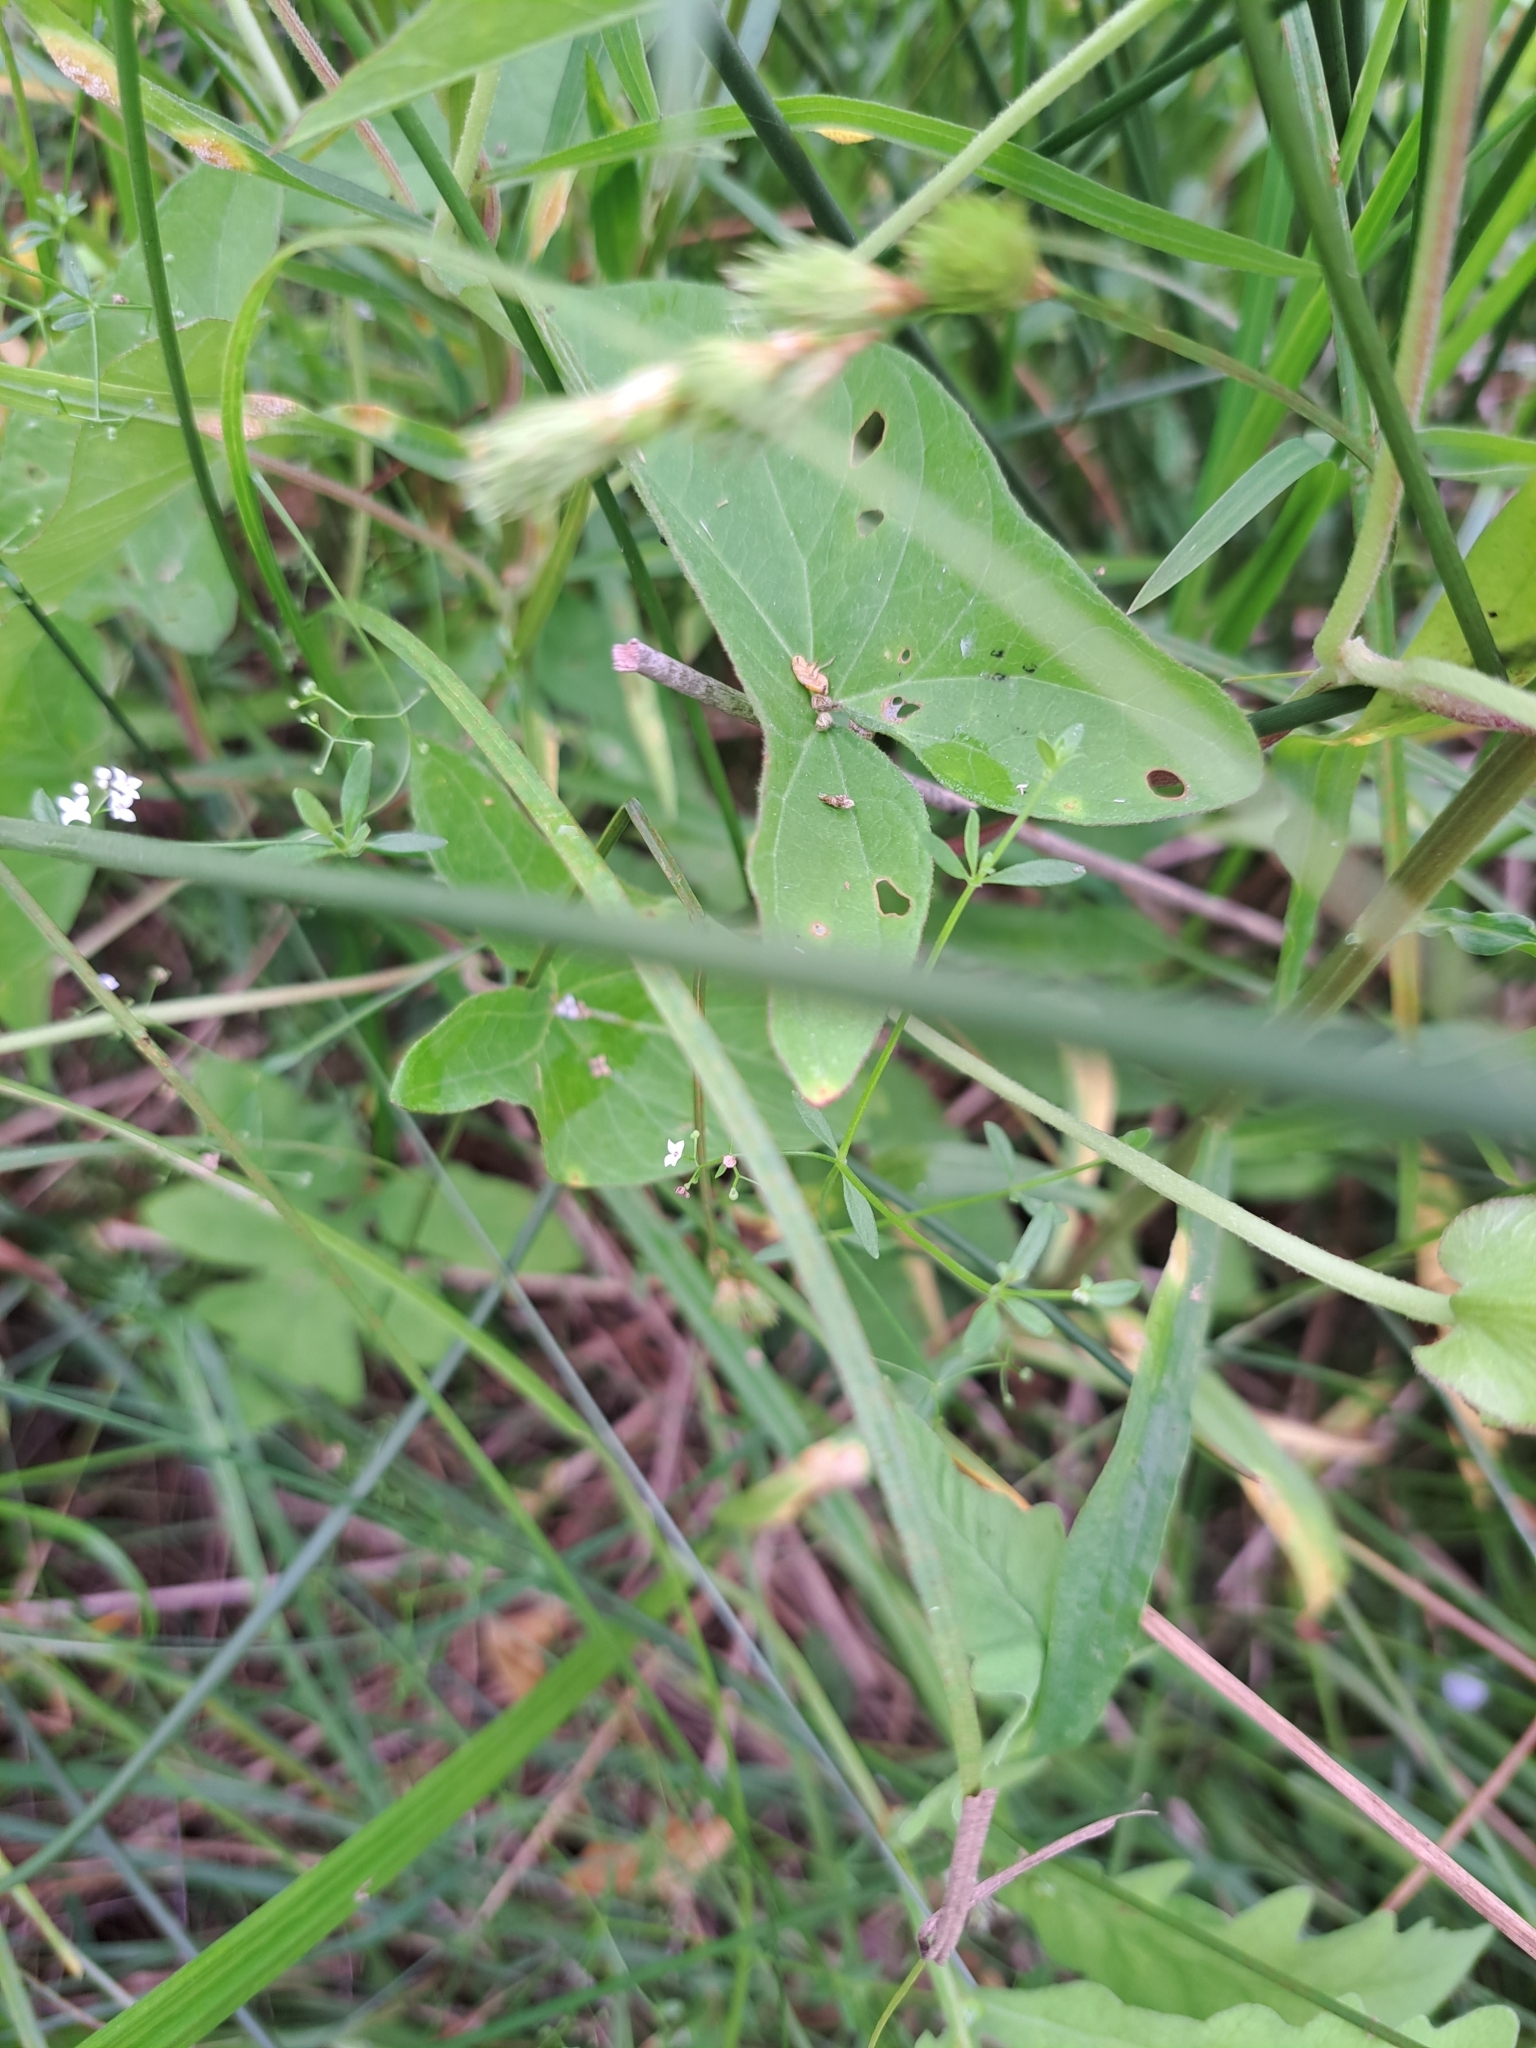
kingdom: Plantae
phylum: Tracheophyta
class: Magnoliopsida
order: Solanales
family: Convolvulaceae
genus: Calystegia
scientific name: Calystegia sepium
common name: Hedge bindweed
